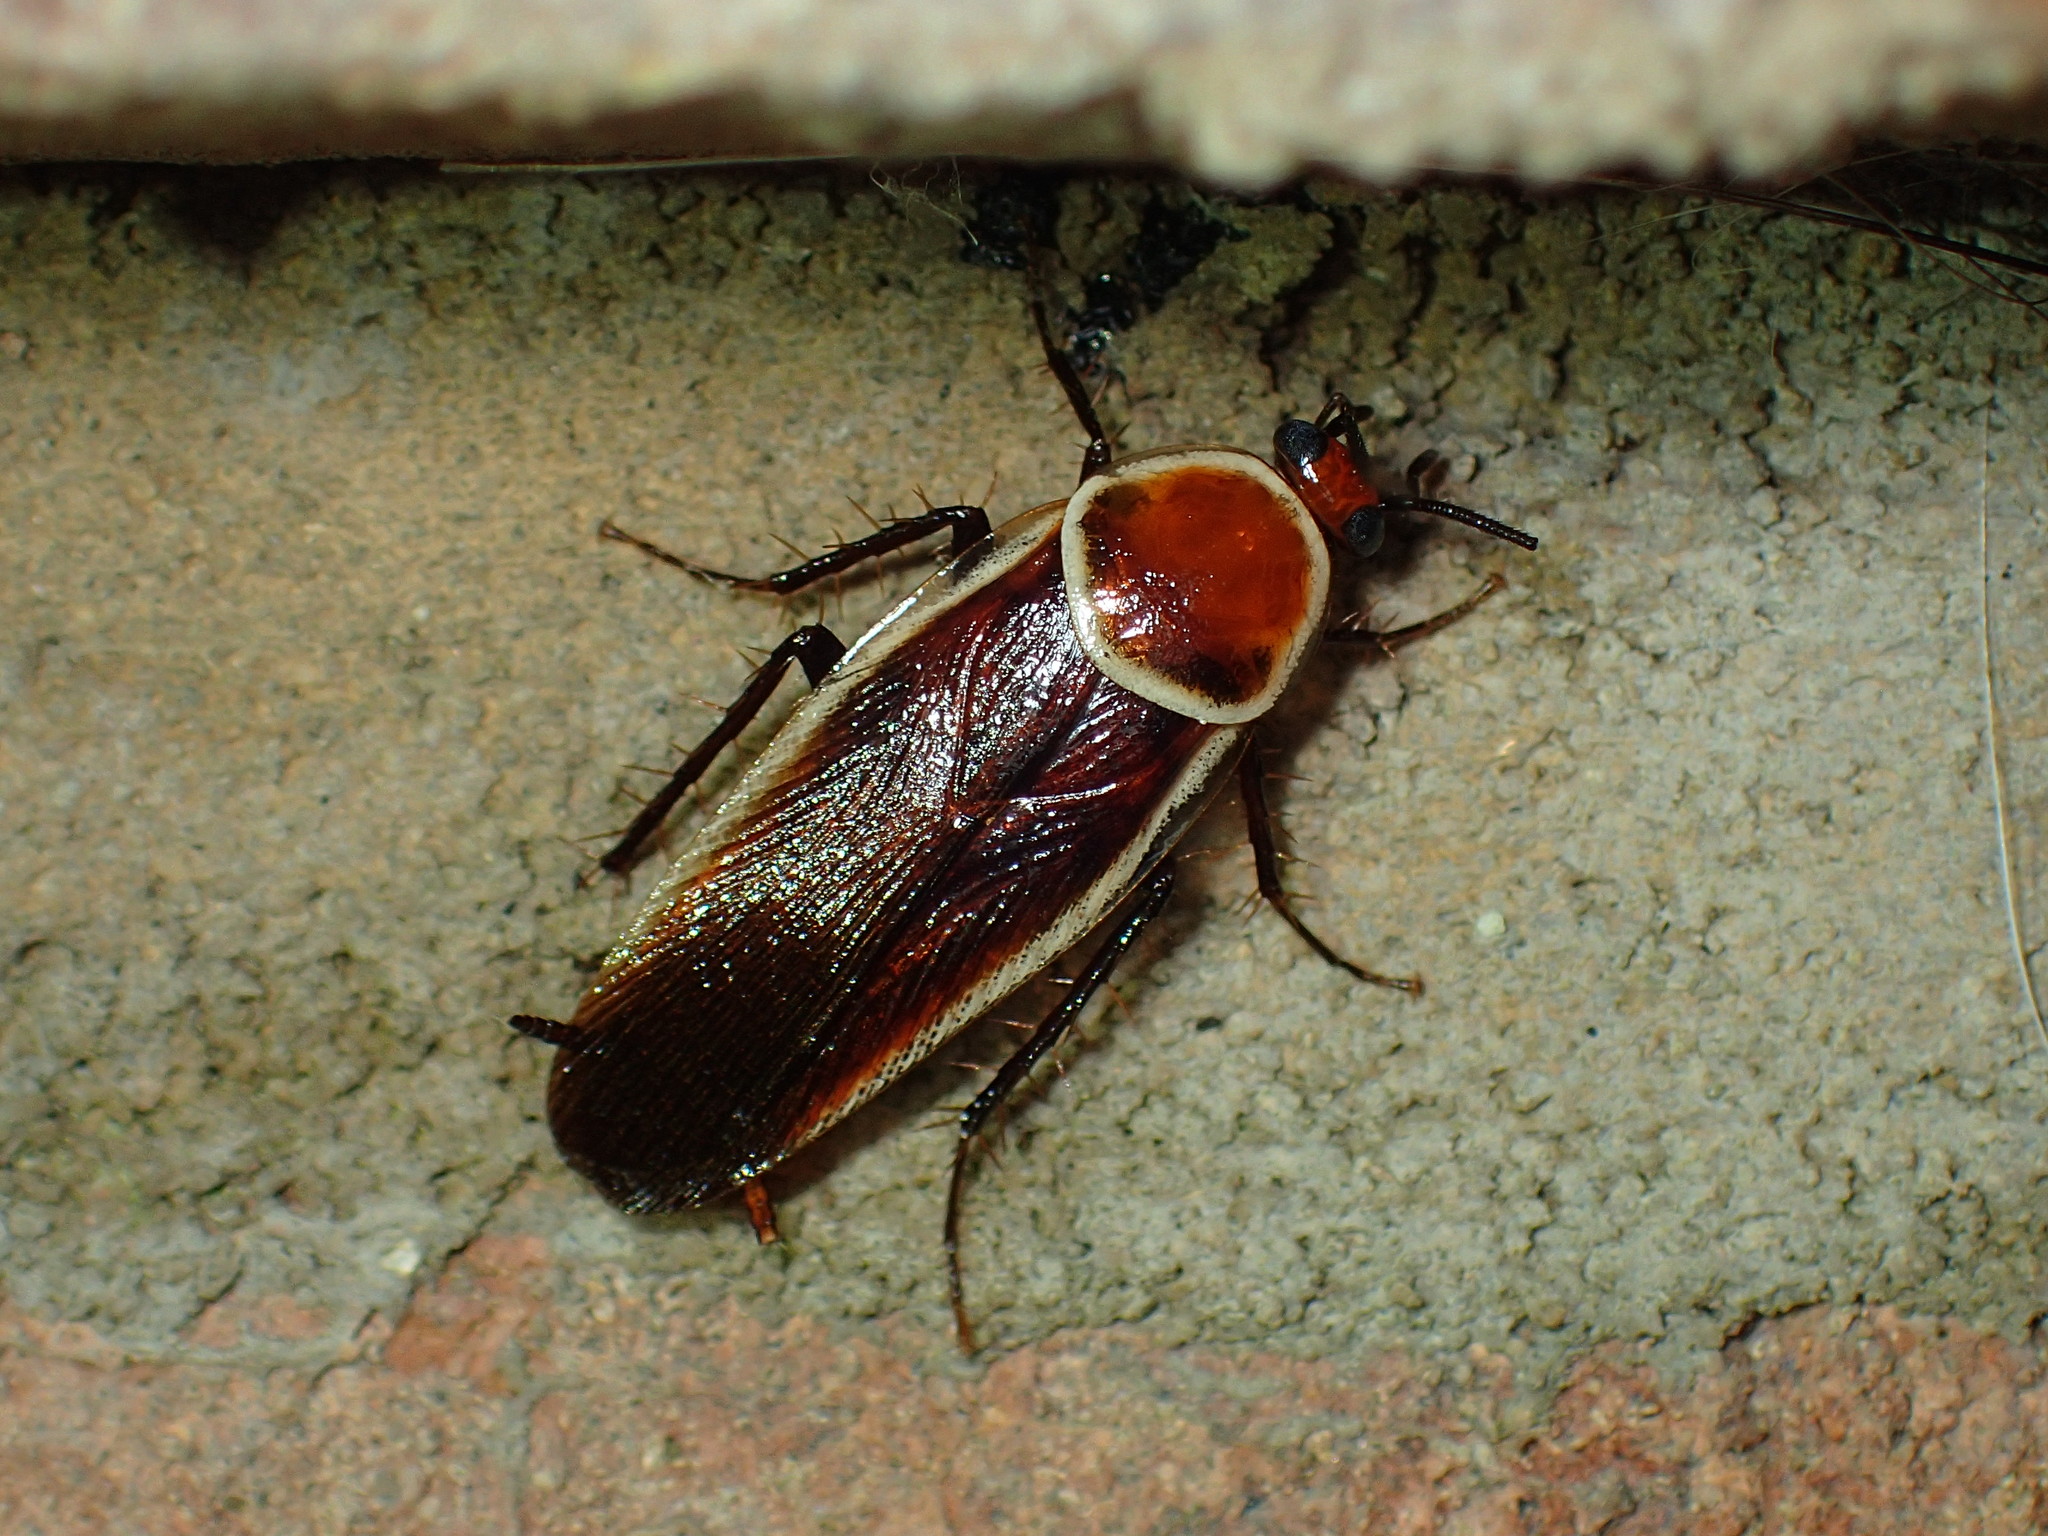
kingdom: Animalia
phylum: Arthropoda
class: Insecta
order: Blattodea
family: Ectobiidae
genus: Pseudomops
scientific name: Pseudomops septentrionalis
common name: Pale-bordered field cockroach
